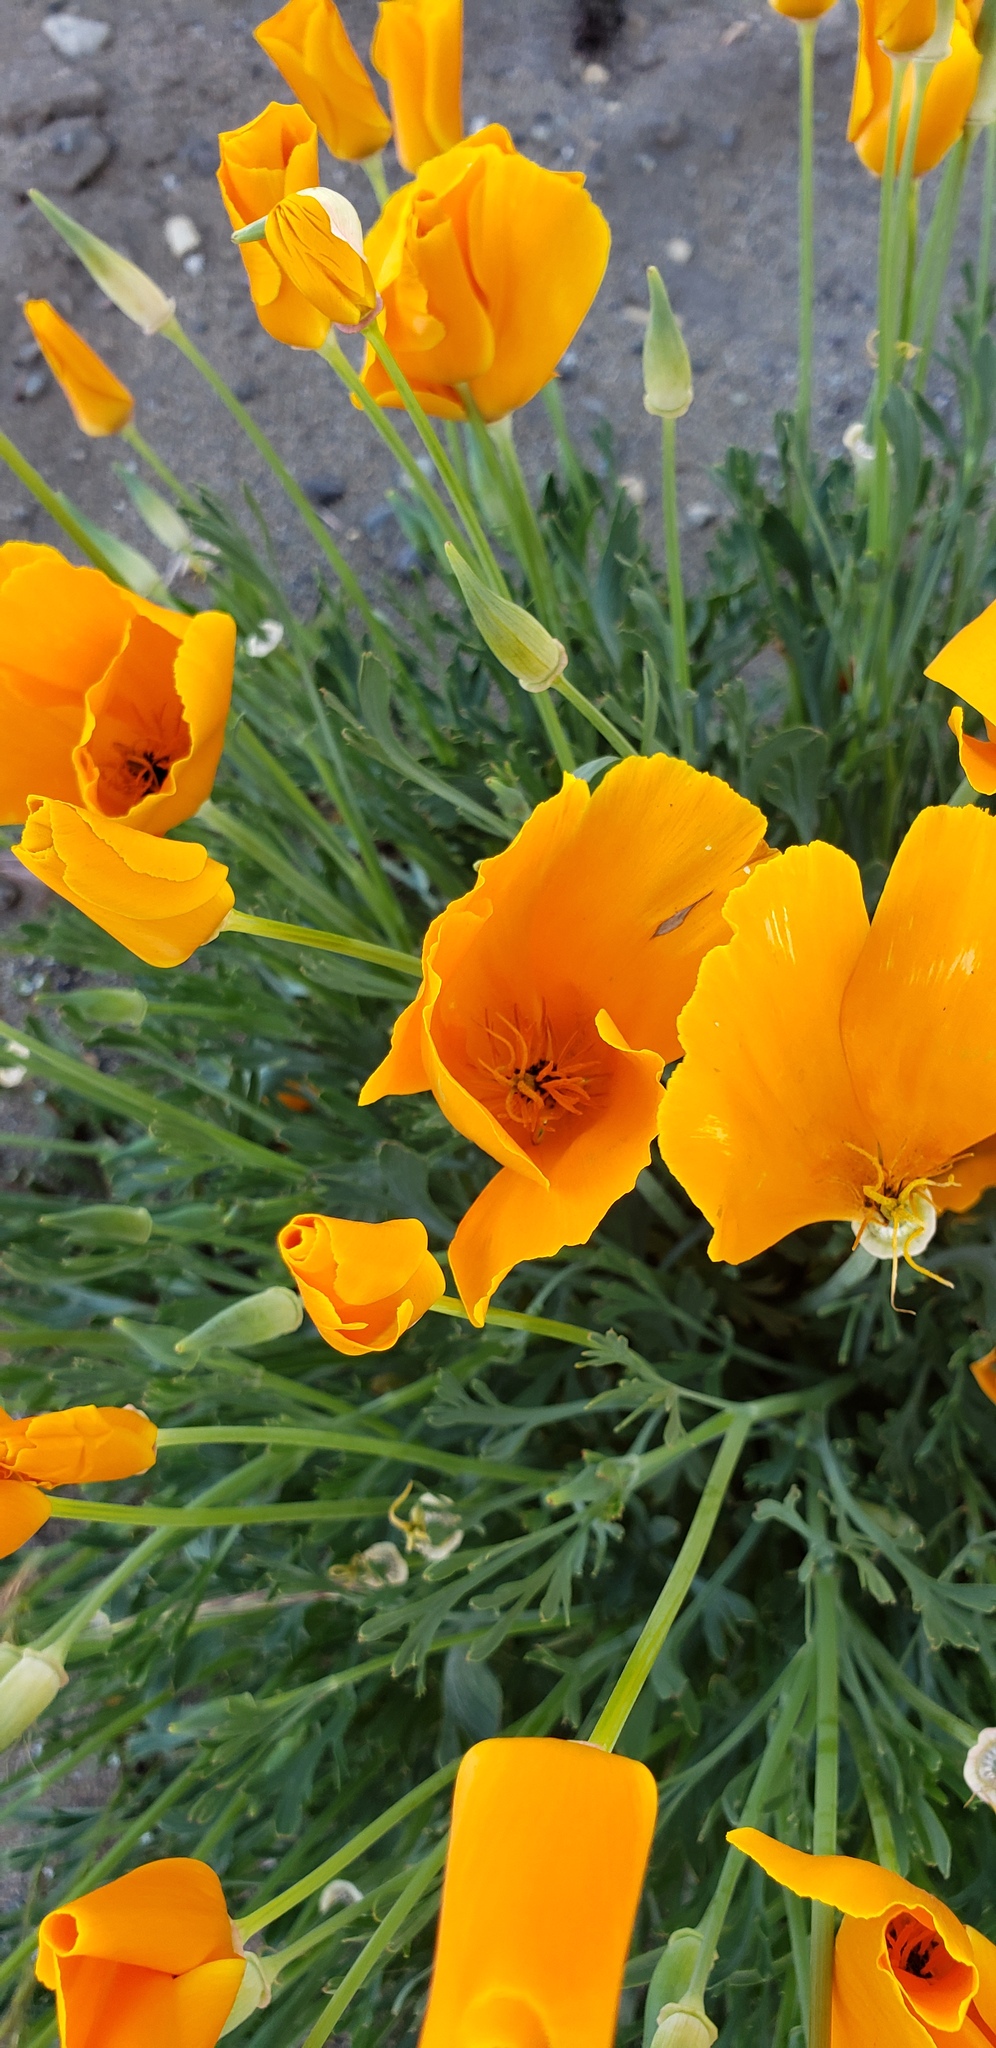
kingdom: Plantae
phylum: Tracheophyta
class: Magnoliopsida
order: Ranunculales
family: Papaveraceae
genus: Eschscholzia
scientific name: Eschscholzia californica
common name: California poppy
